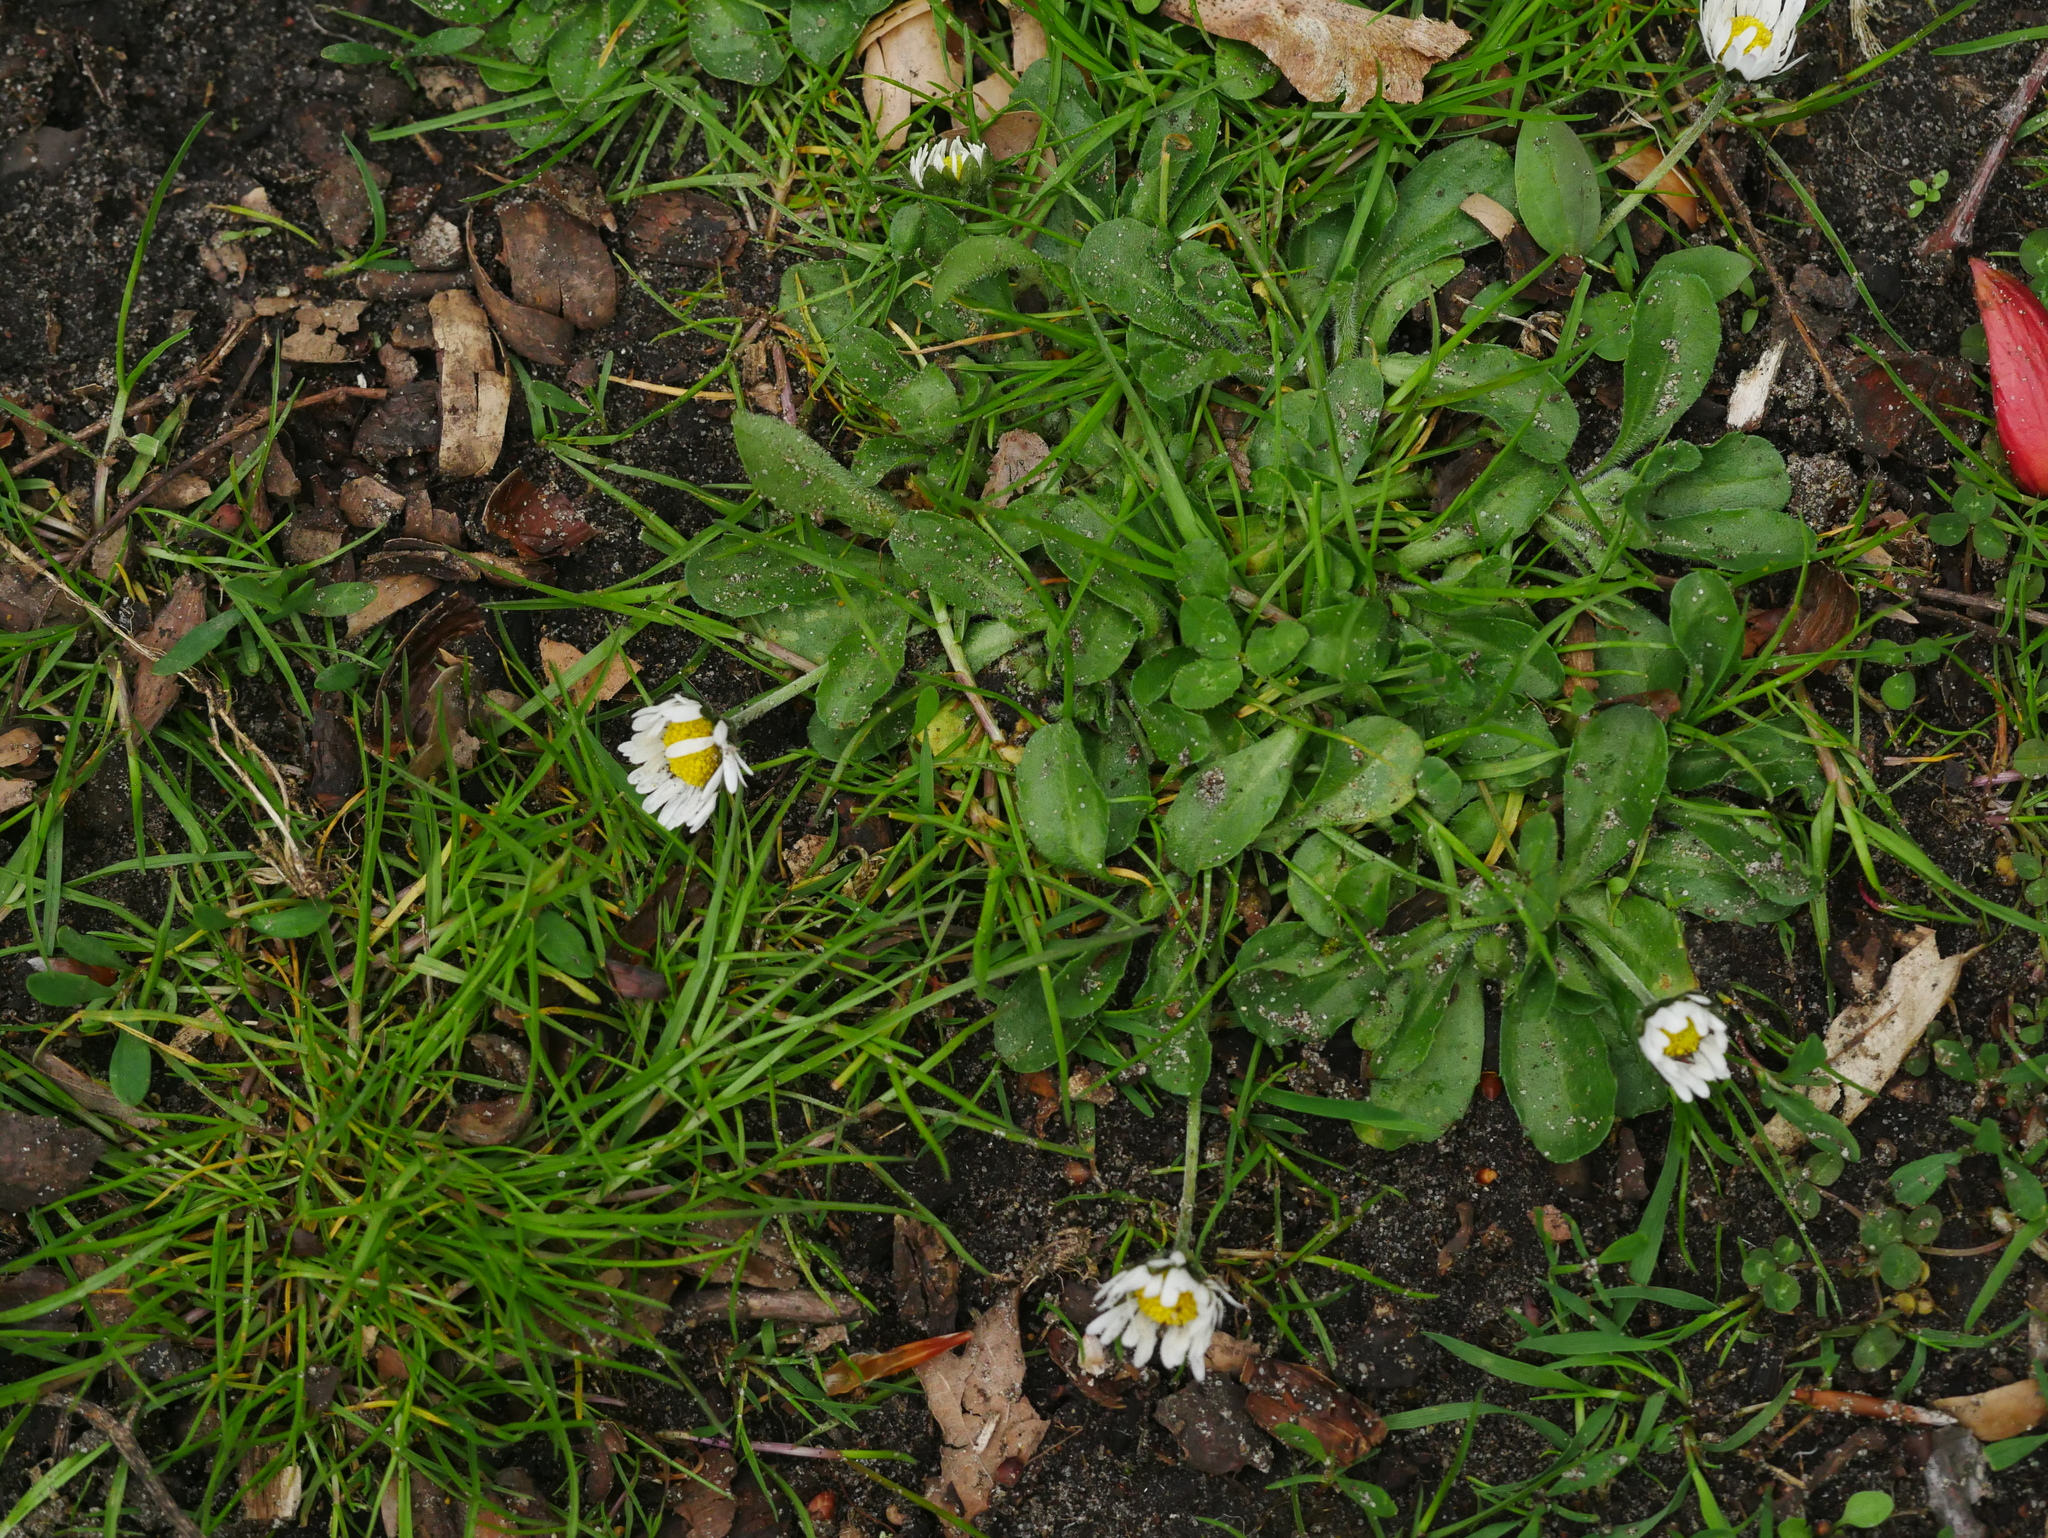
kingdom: Plantae
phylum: Tracheophyta
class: Magnoliopsida
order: Asterales
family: Asteraceae
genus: Bellis
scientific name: Bellis perennis
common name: Lawndaisy
